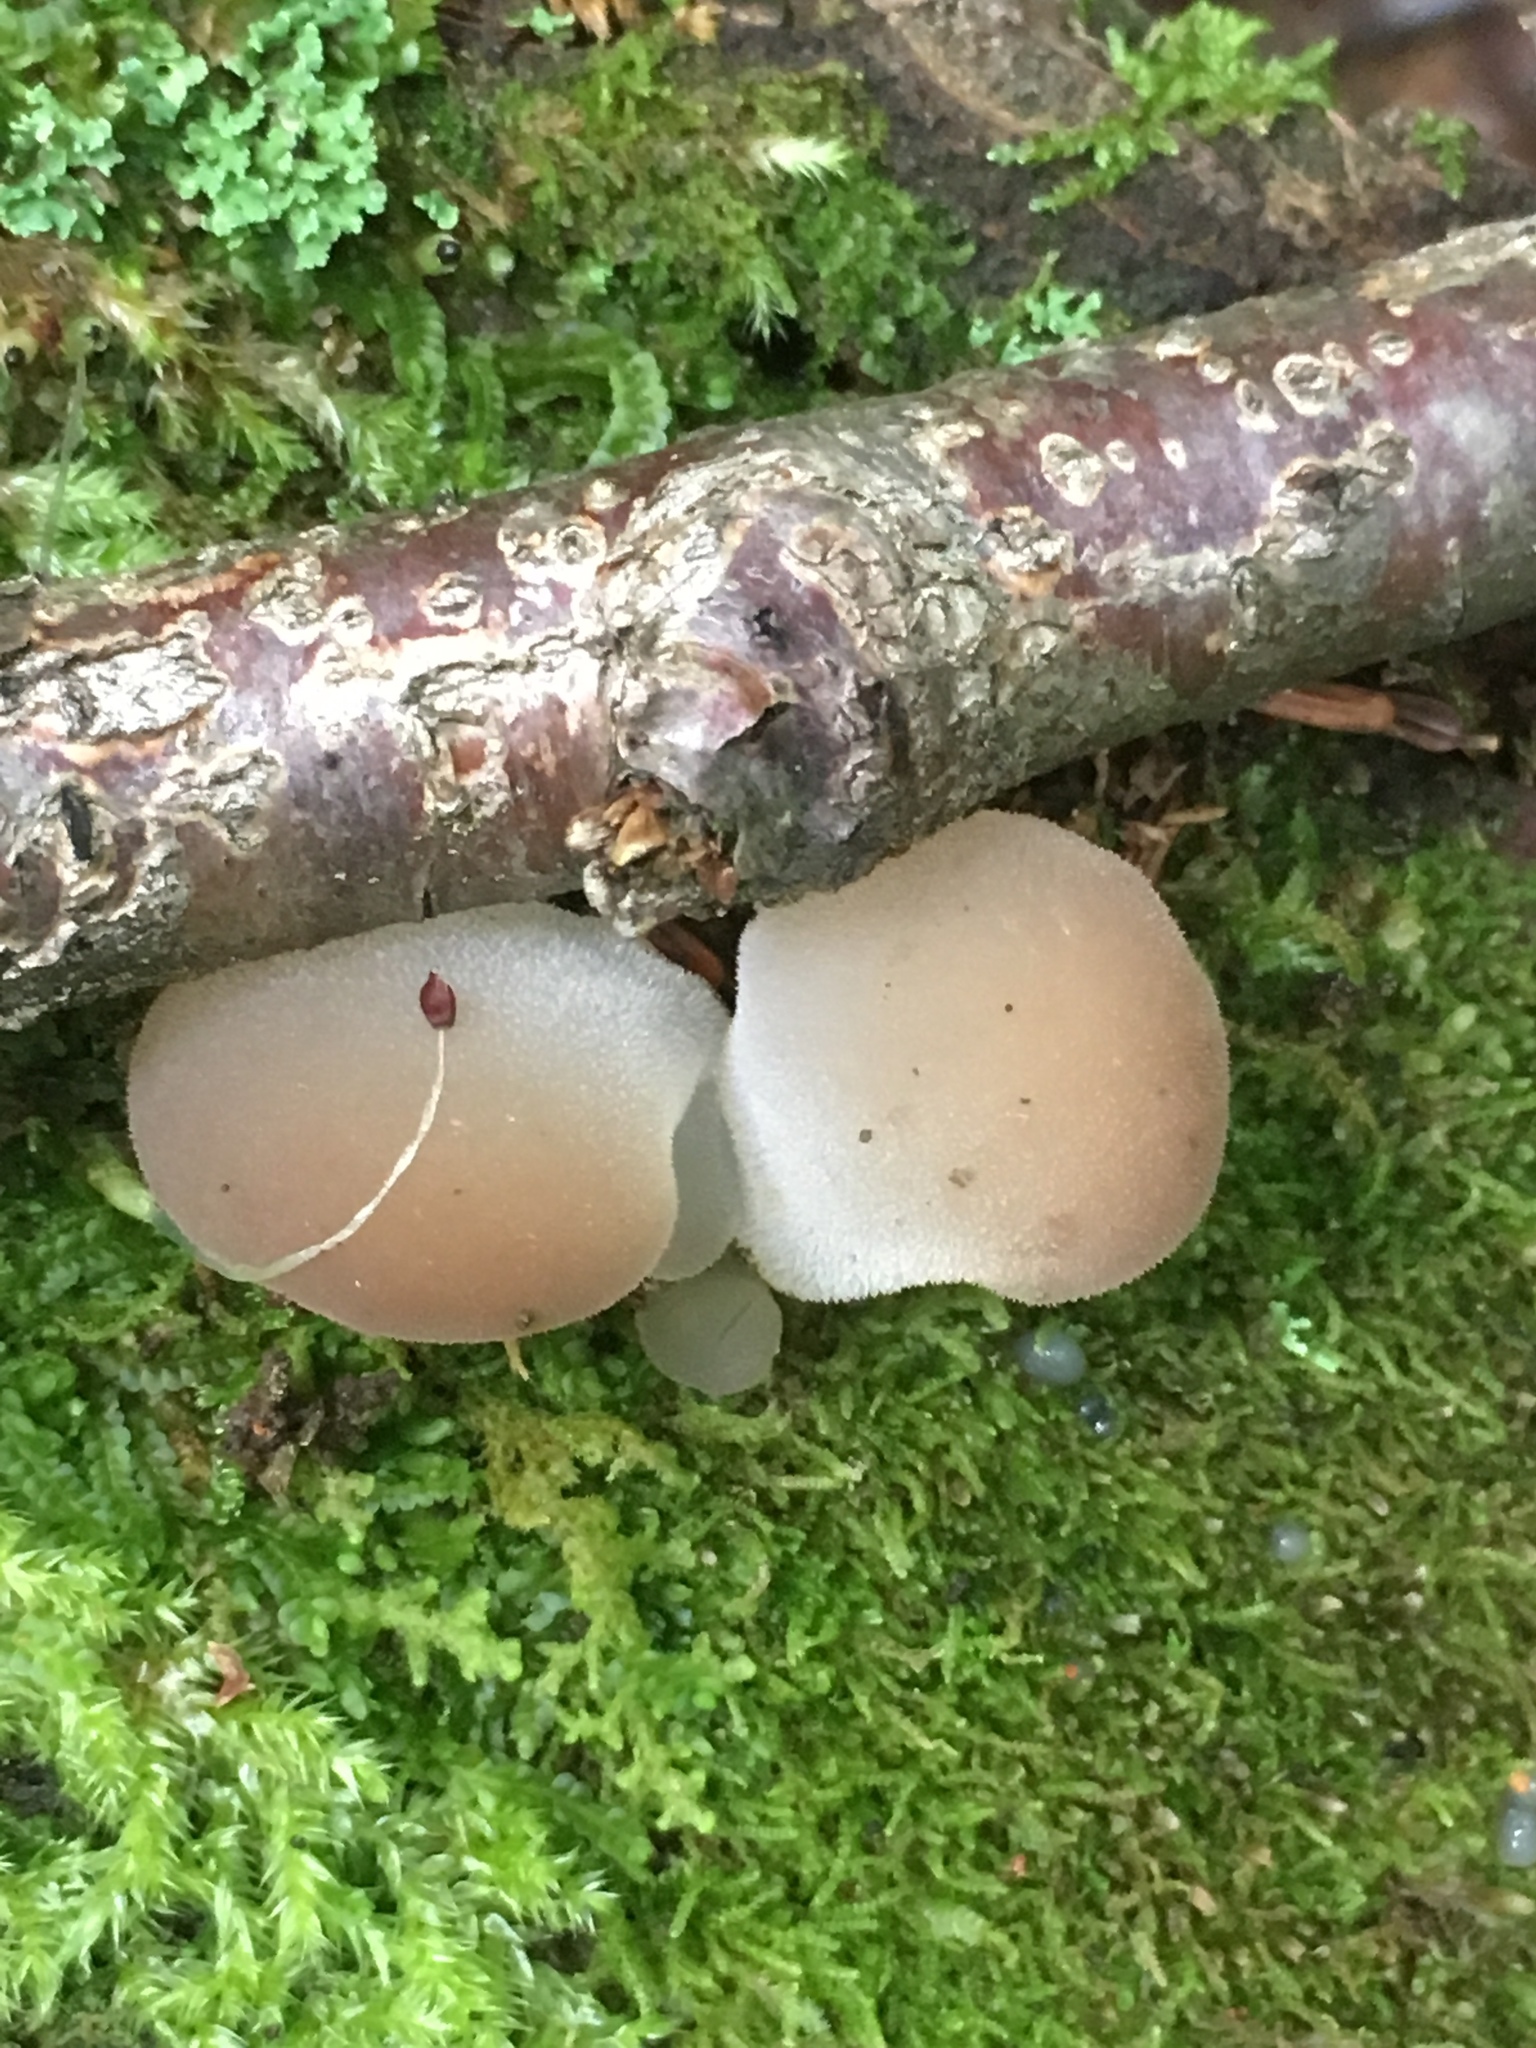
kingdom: Fungi
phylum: Basidiomycota
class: Agaricomycetes
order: Auriculariales
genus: Pseudohydnum
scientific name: Pseudohydnum gelatinosum
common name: Jelly tongue
